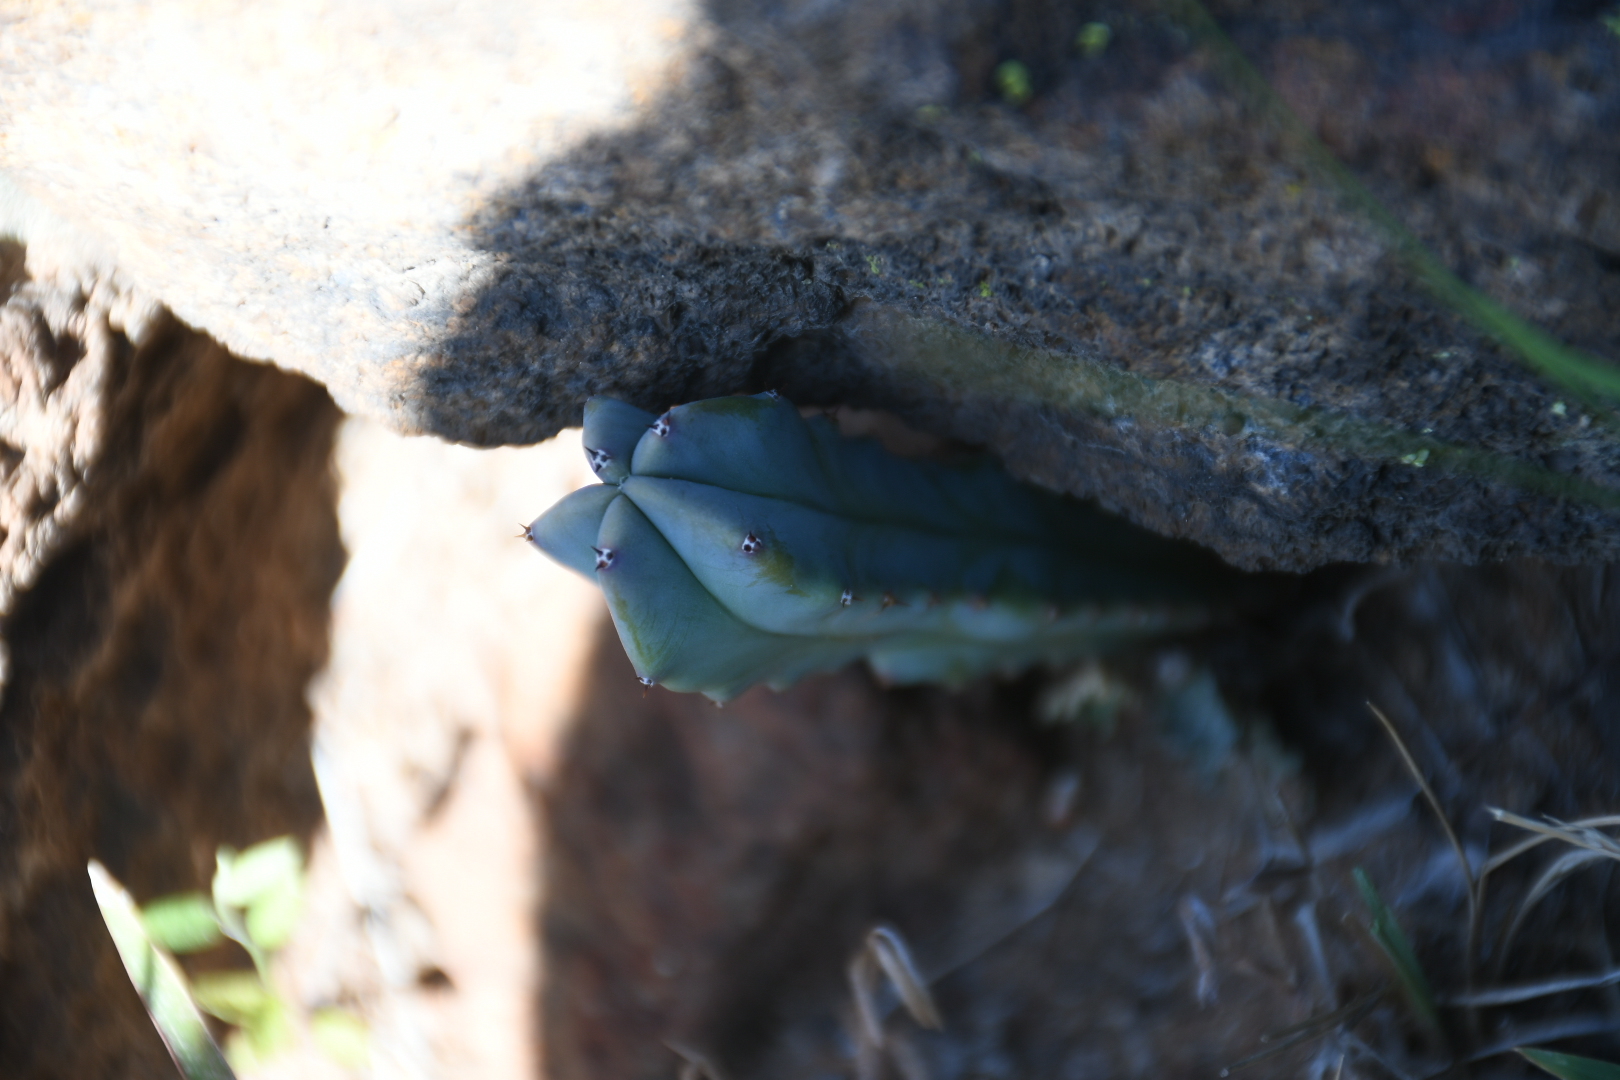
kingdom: Plantae
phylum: Tracheophyta
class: Magnoliopsida
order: Caryophyllales
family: Cactaceae
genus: Myrtillocactus
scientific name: Myrtillocactus geometrizans
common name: Bilberry cactus
